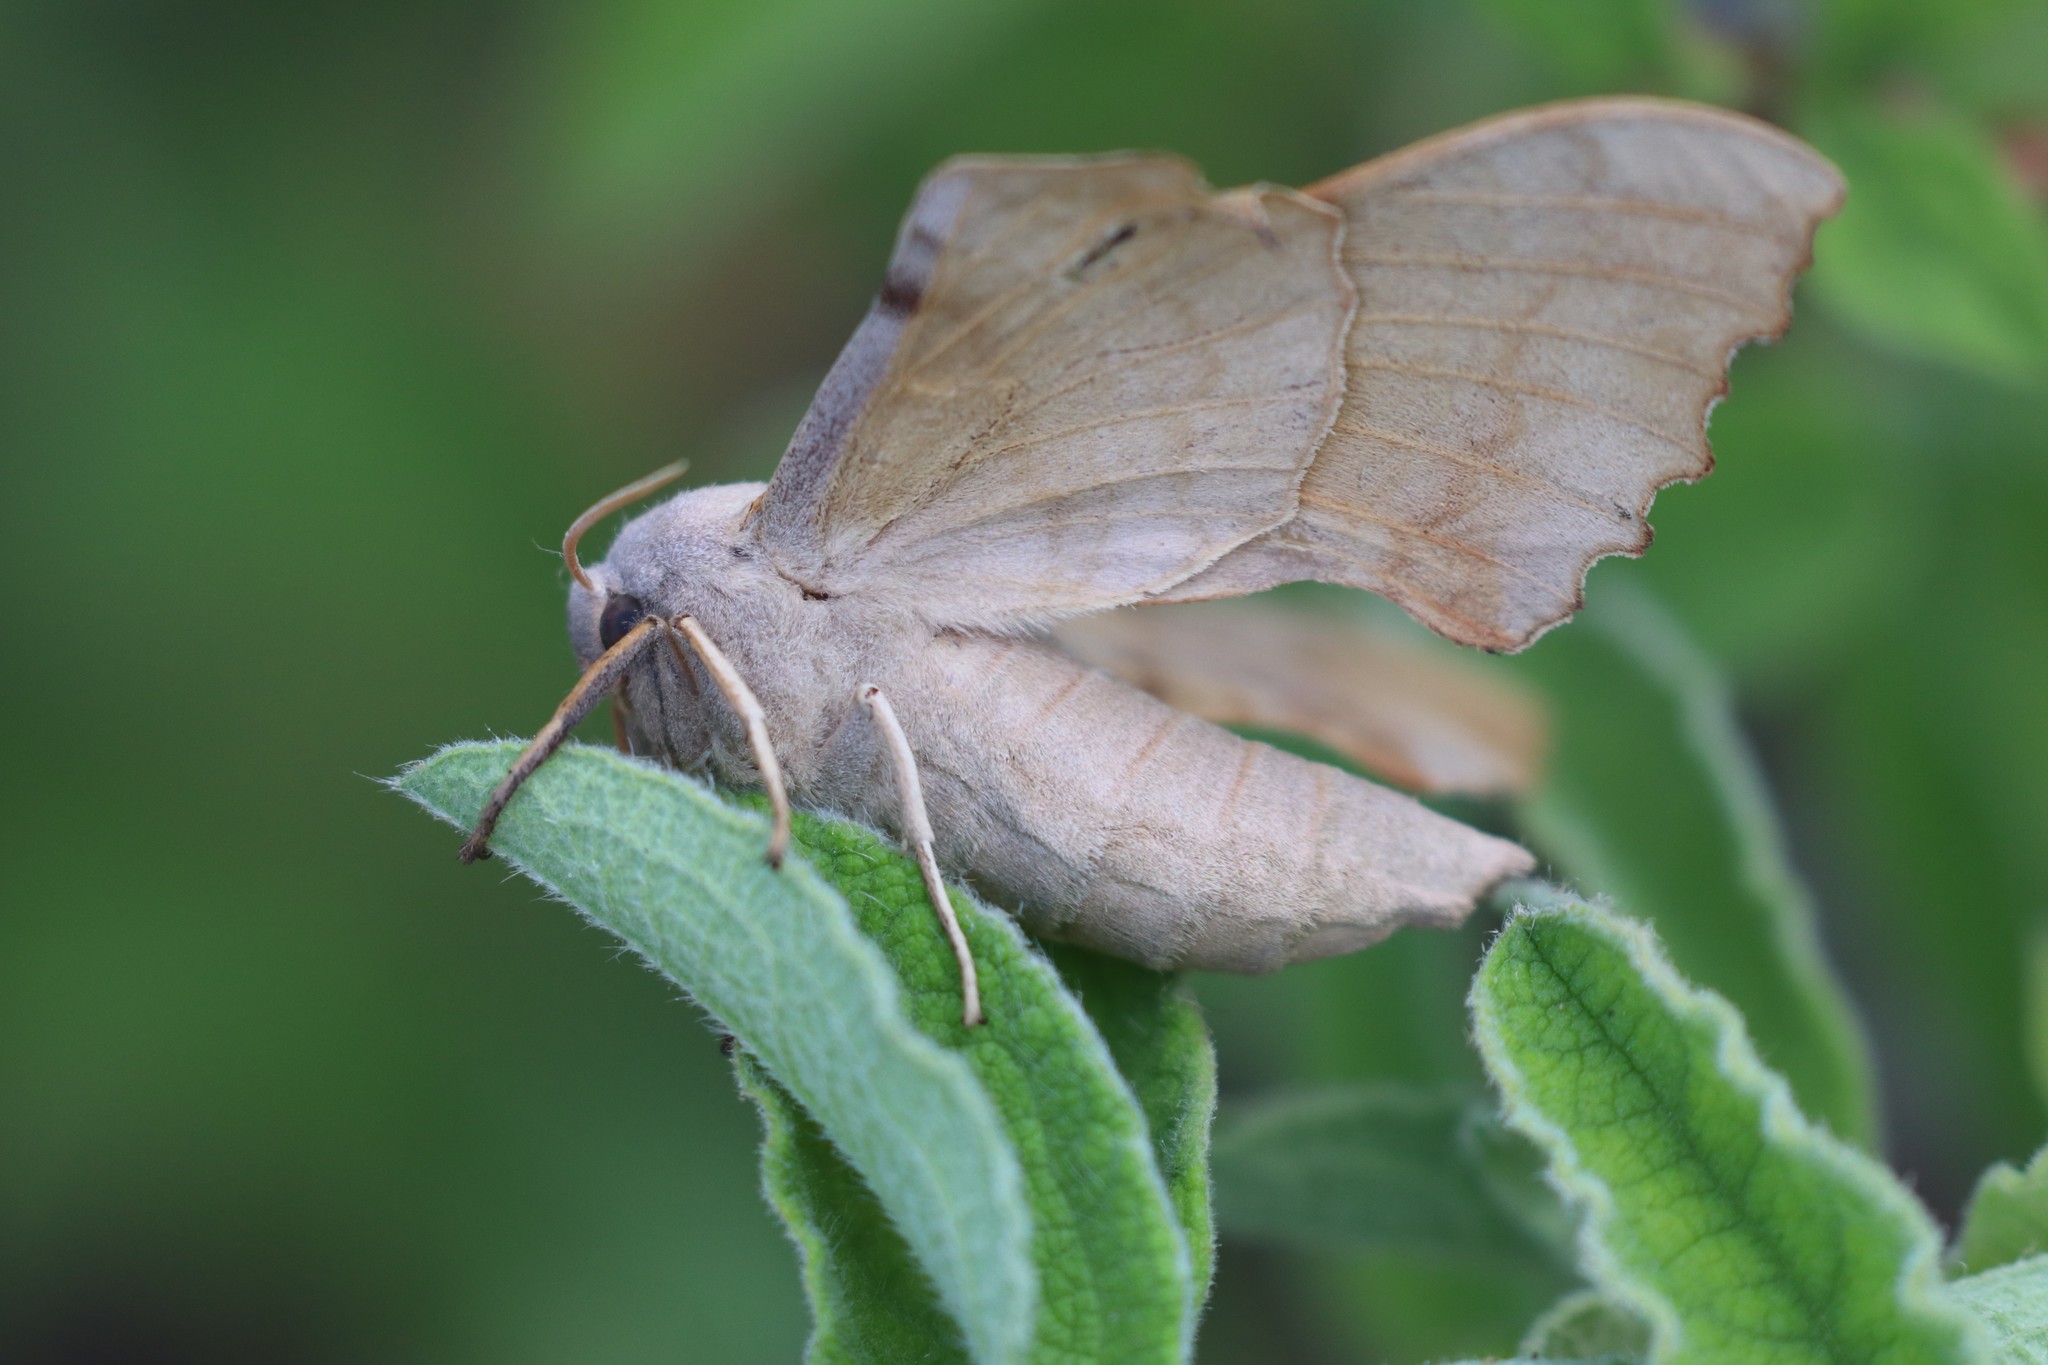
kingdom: Animalia
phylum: Arthropoda
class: Insecta
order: Lepidoptera
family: Sphingidae
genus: Laothoe
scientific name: Laothoe populi
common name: Poplar hawk-moth
